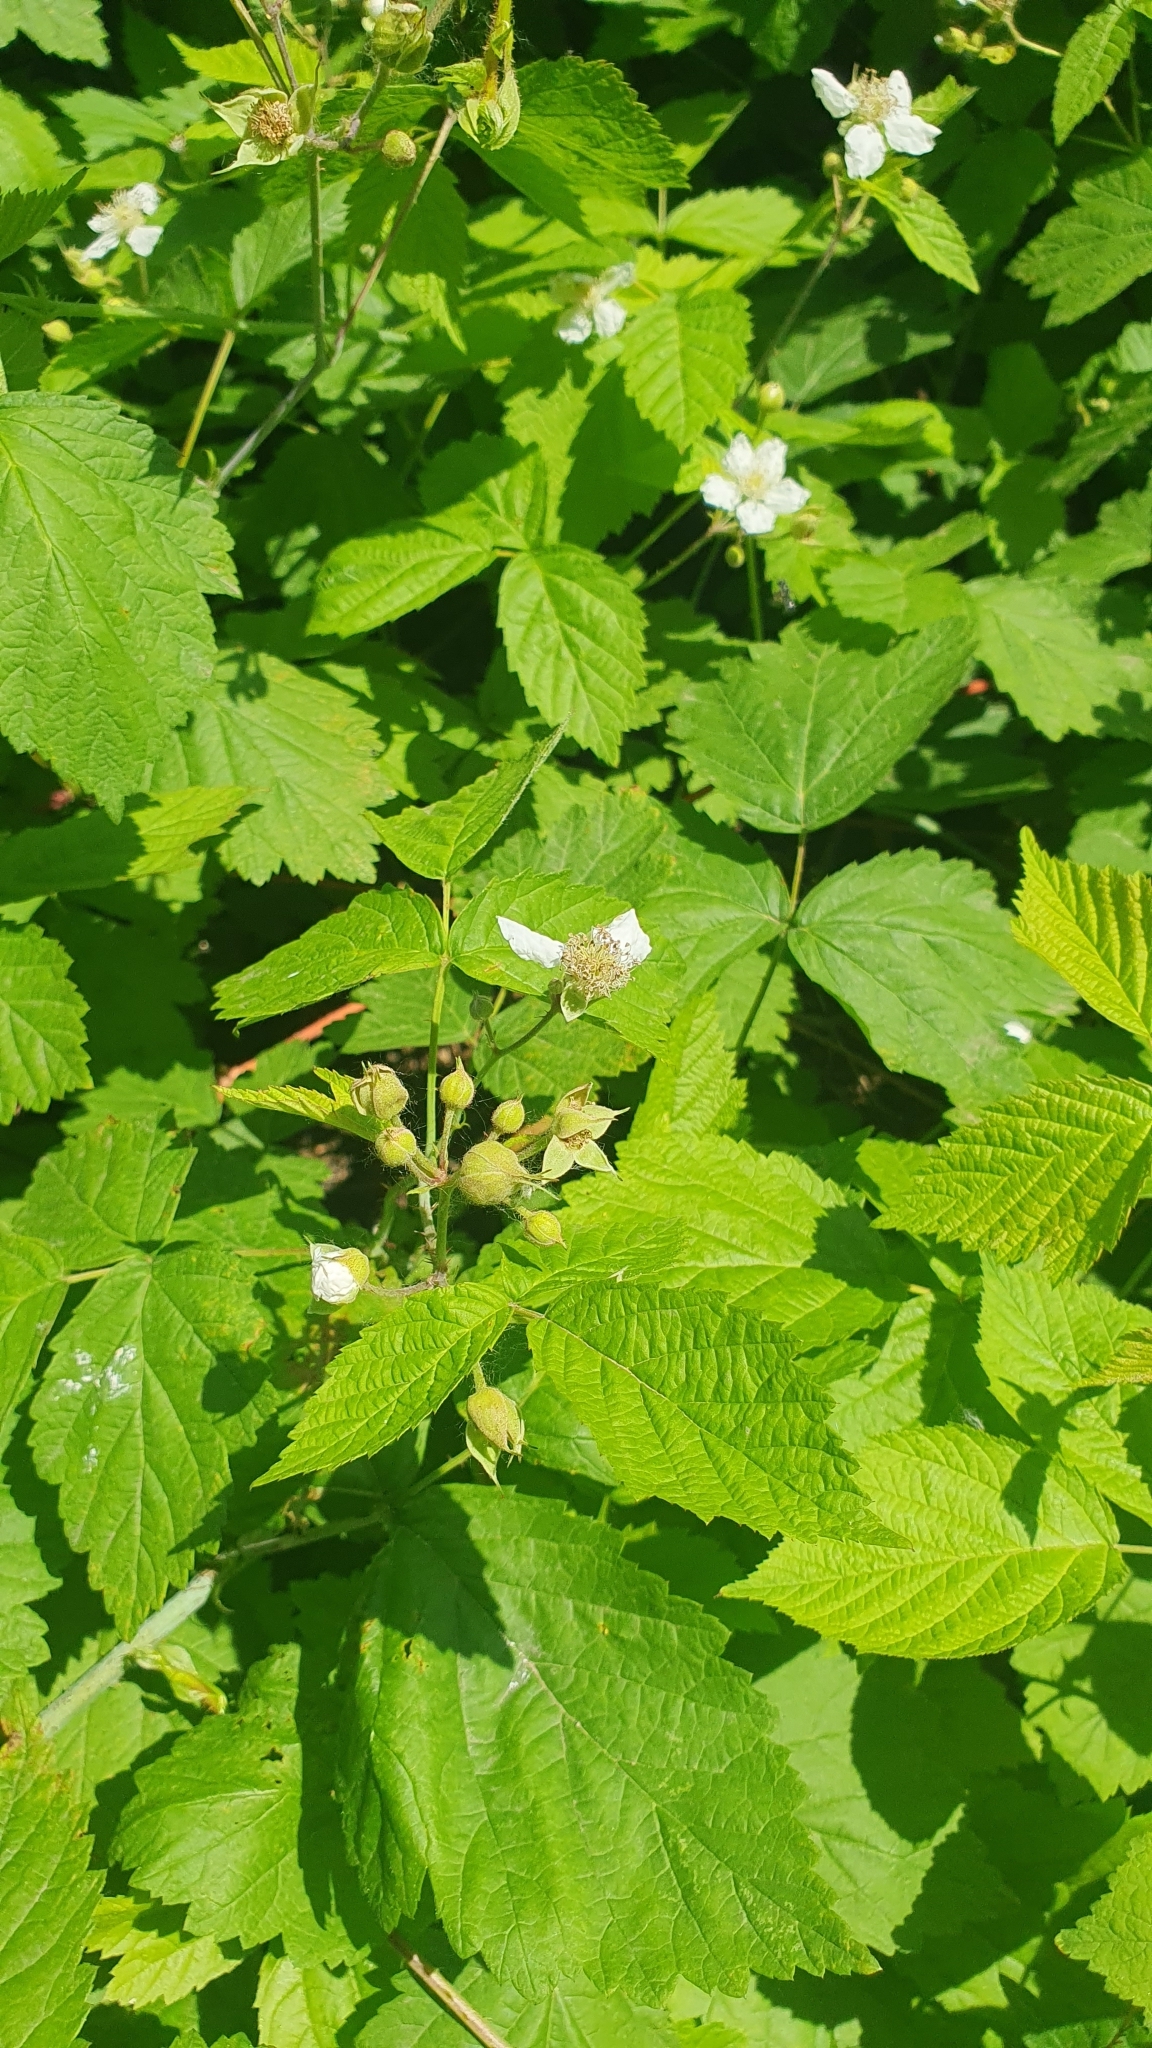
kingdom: Plantae
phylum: Tracheophyta
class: Magnoliopsida
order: Rosales
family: Rosaceae
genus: Rubus
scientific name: Rubus caesius
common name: Dewberry
